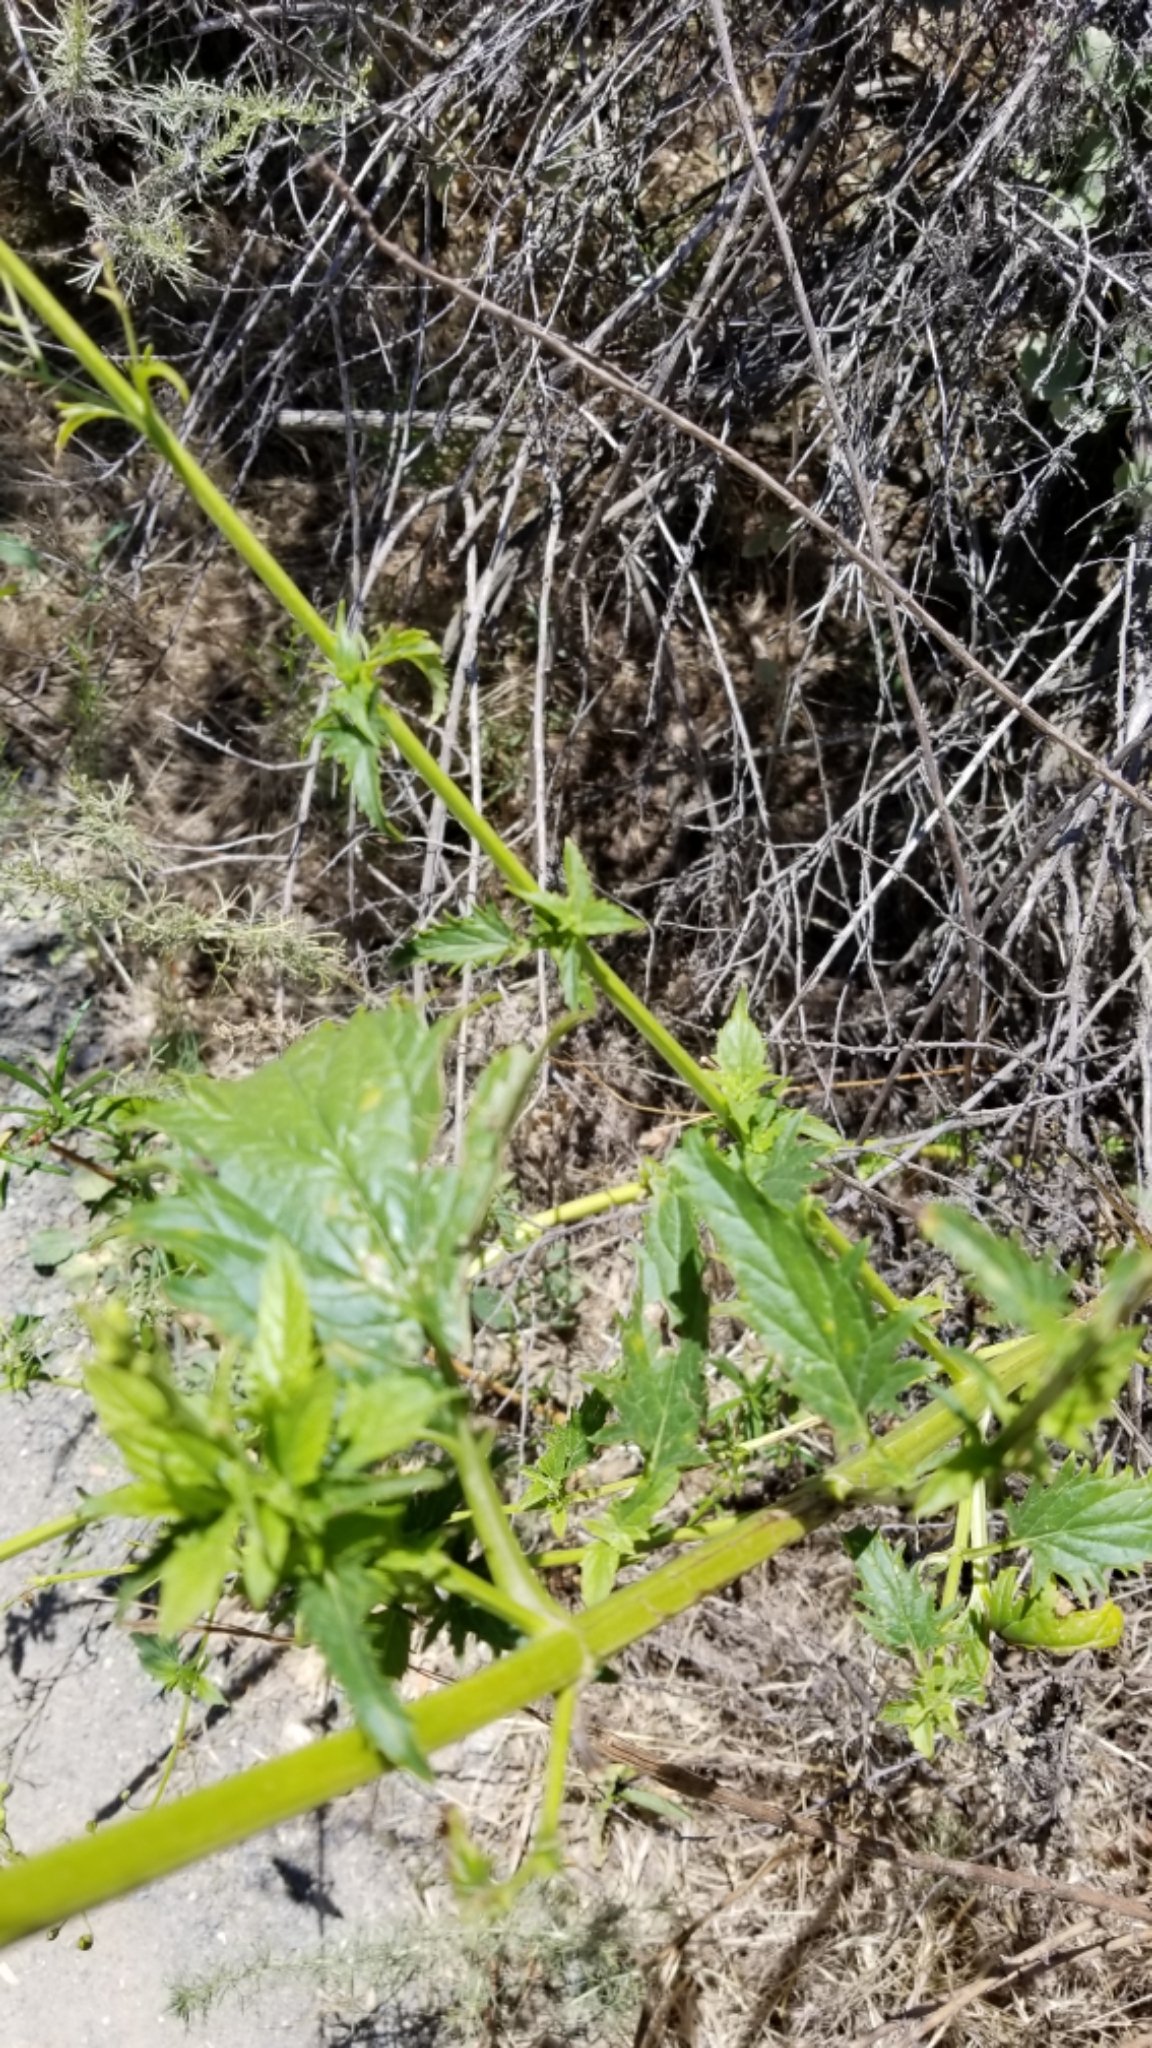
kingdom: Plantae
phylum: Tracheophyta
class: Magnoliopsida
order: Lamiales
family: Scrophulariaceae
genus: Scrophularia
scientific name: Scrophularia californica
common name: California figwort
